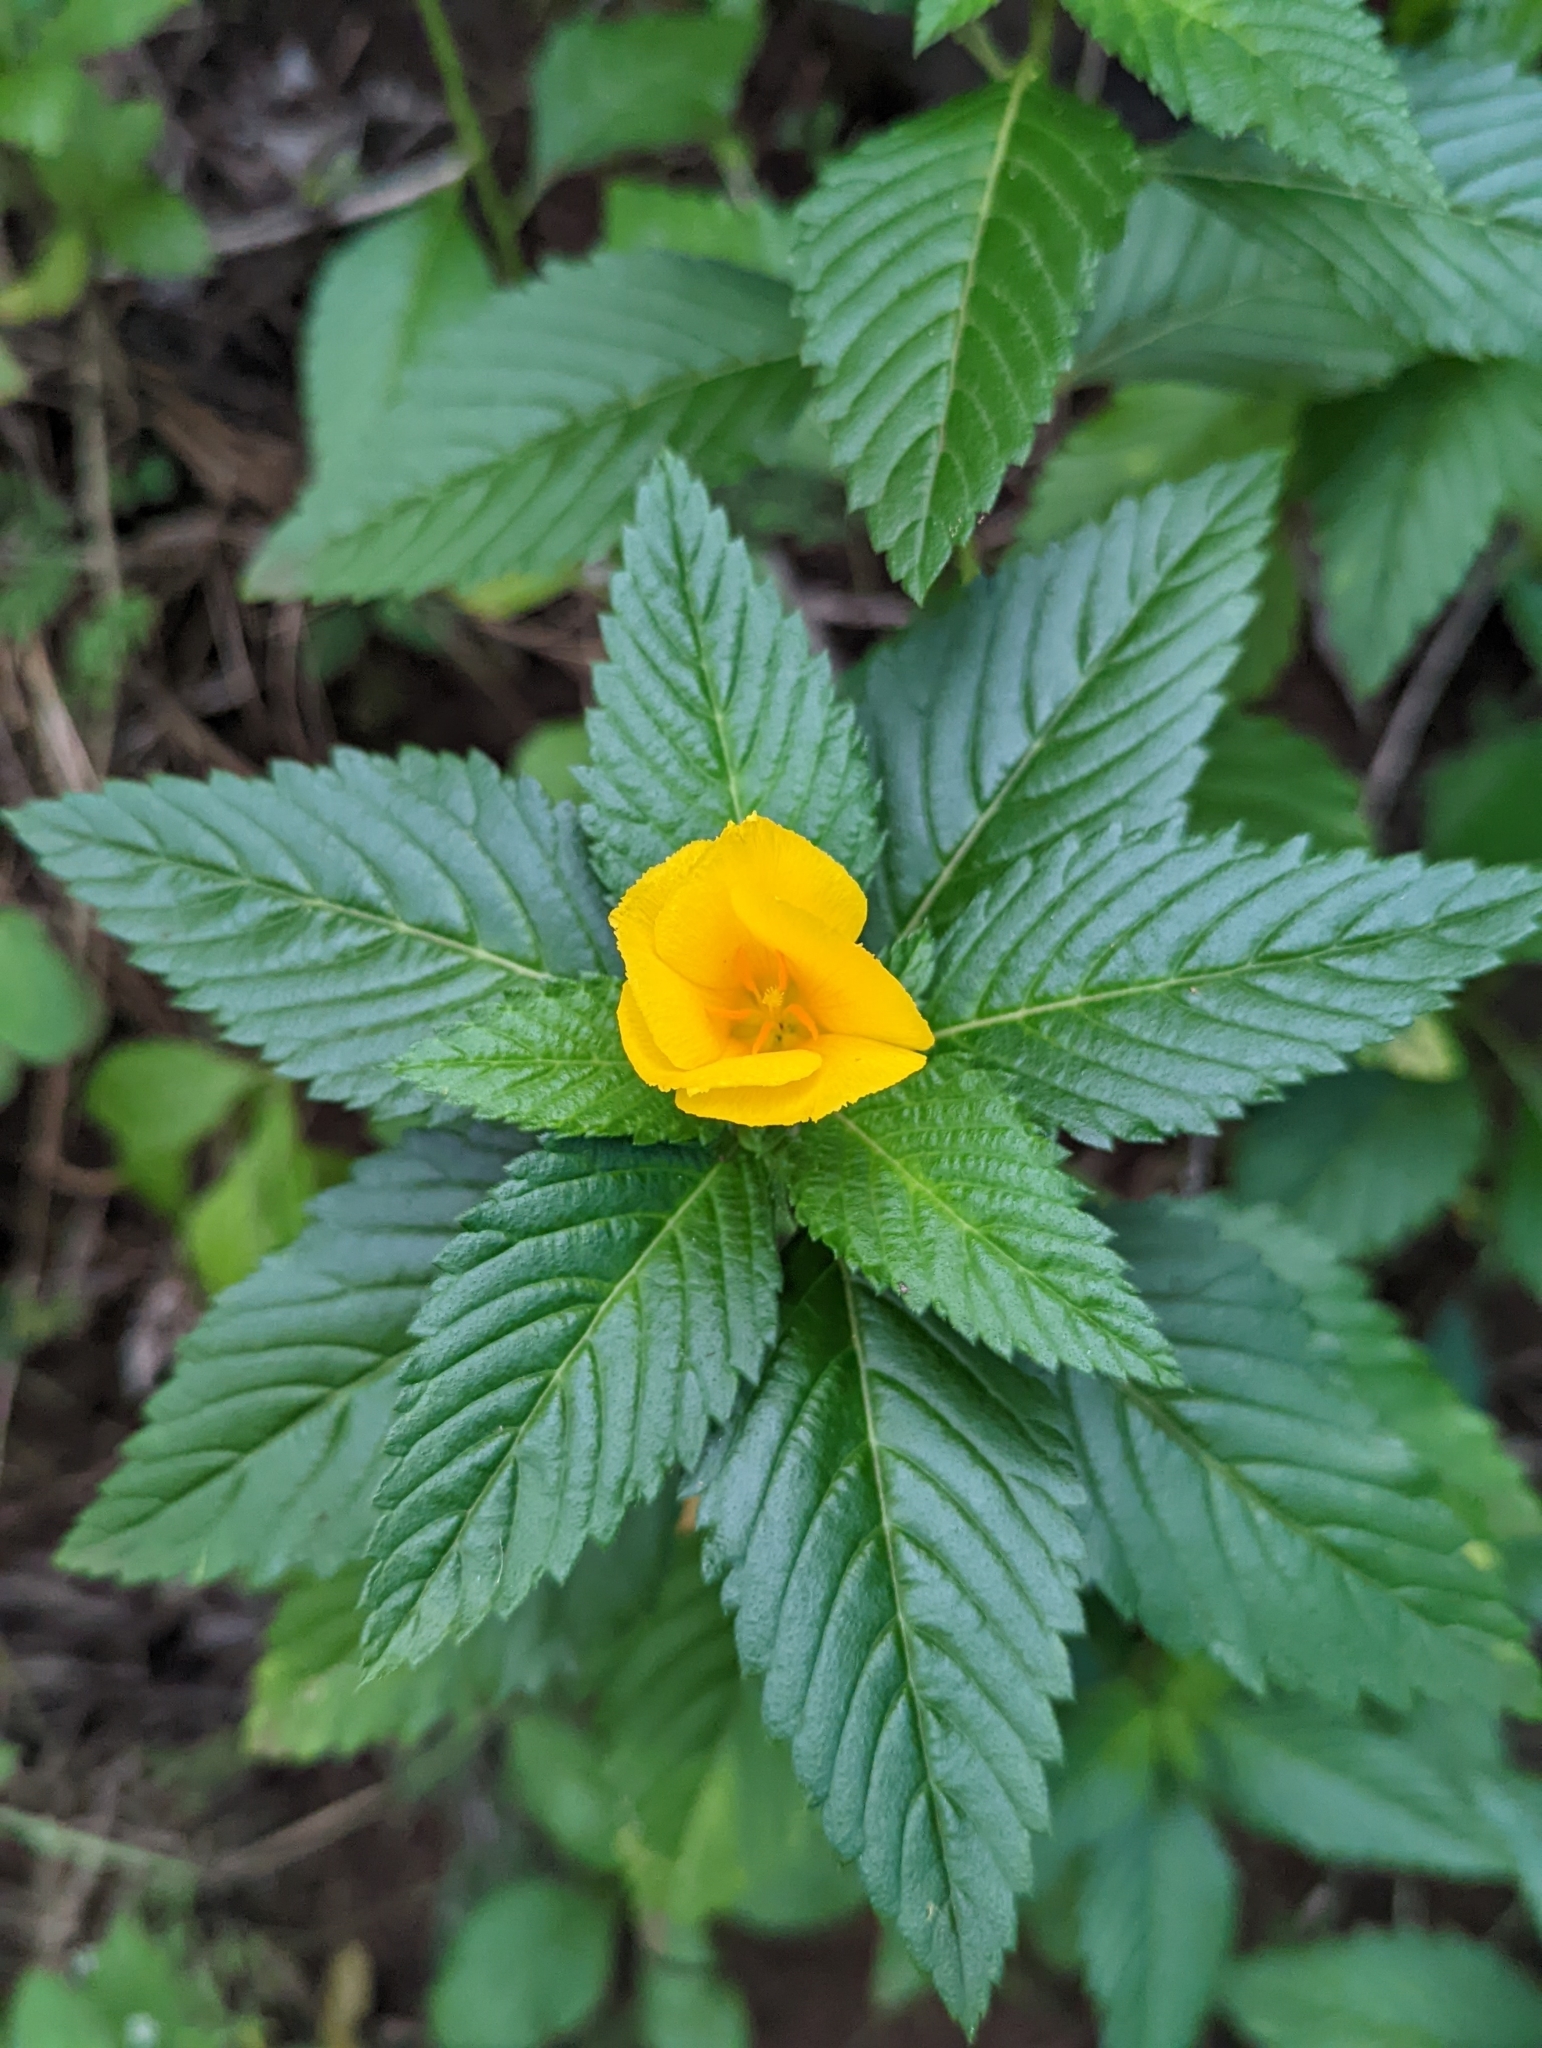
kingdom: Plantae
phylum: Tracheophyta
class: Magnoliopsida
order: Malpighiales
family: Turneraceae
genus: Turnera
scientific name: Turnera ulmifolia
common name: Ramgoat dashalong
